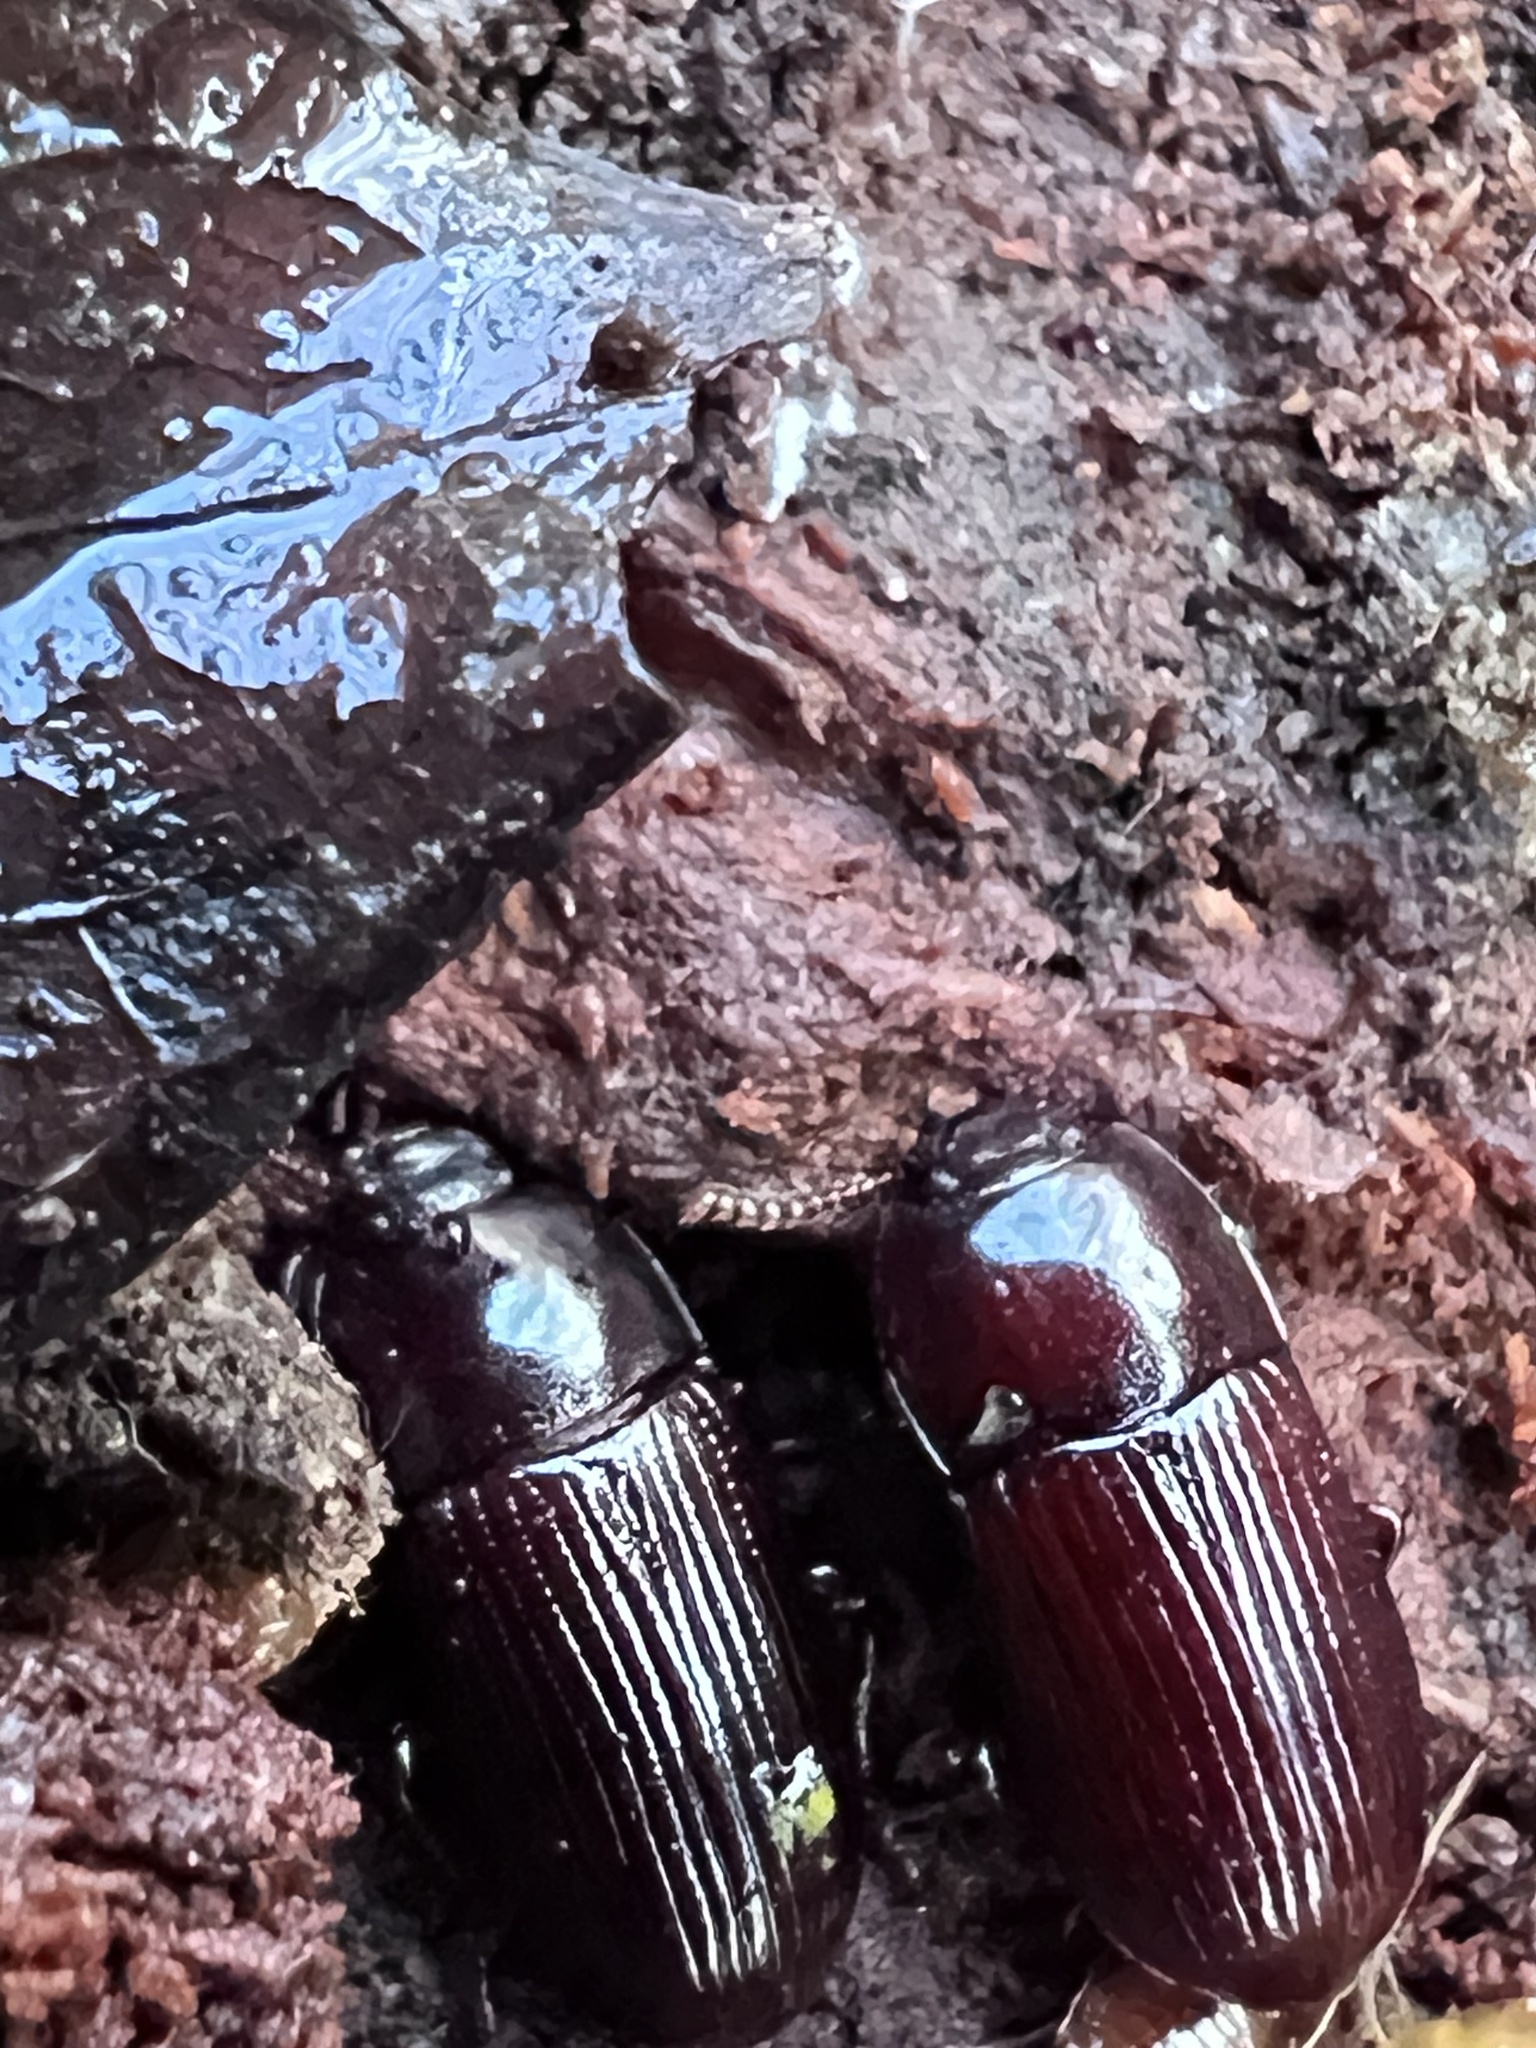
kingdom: Animalia
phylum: Arthropoda
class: Insecta
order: Coleoptera
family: Tenebrionidae
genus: Uloma
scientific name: Uloma imberbis
